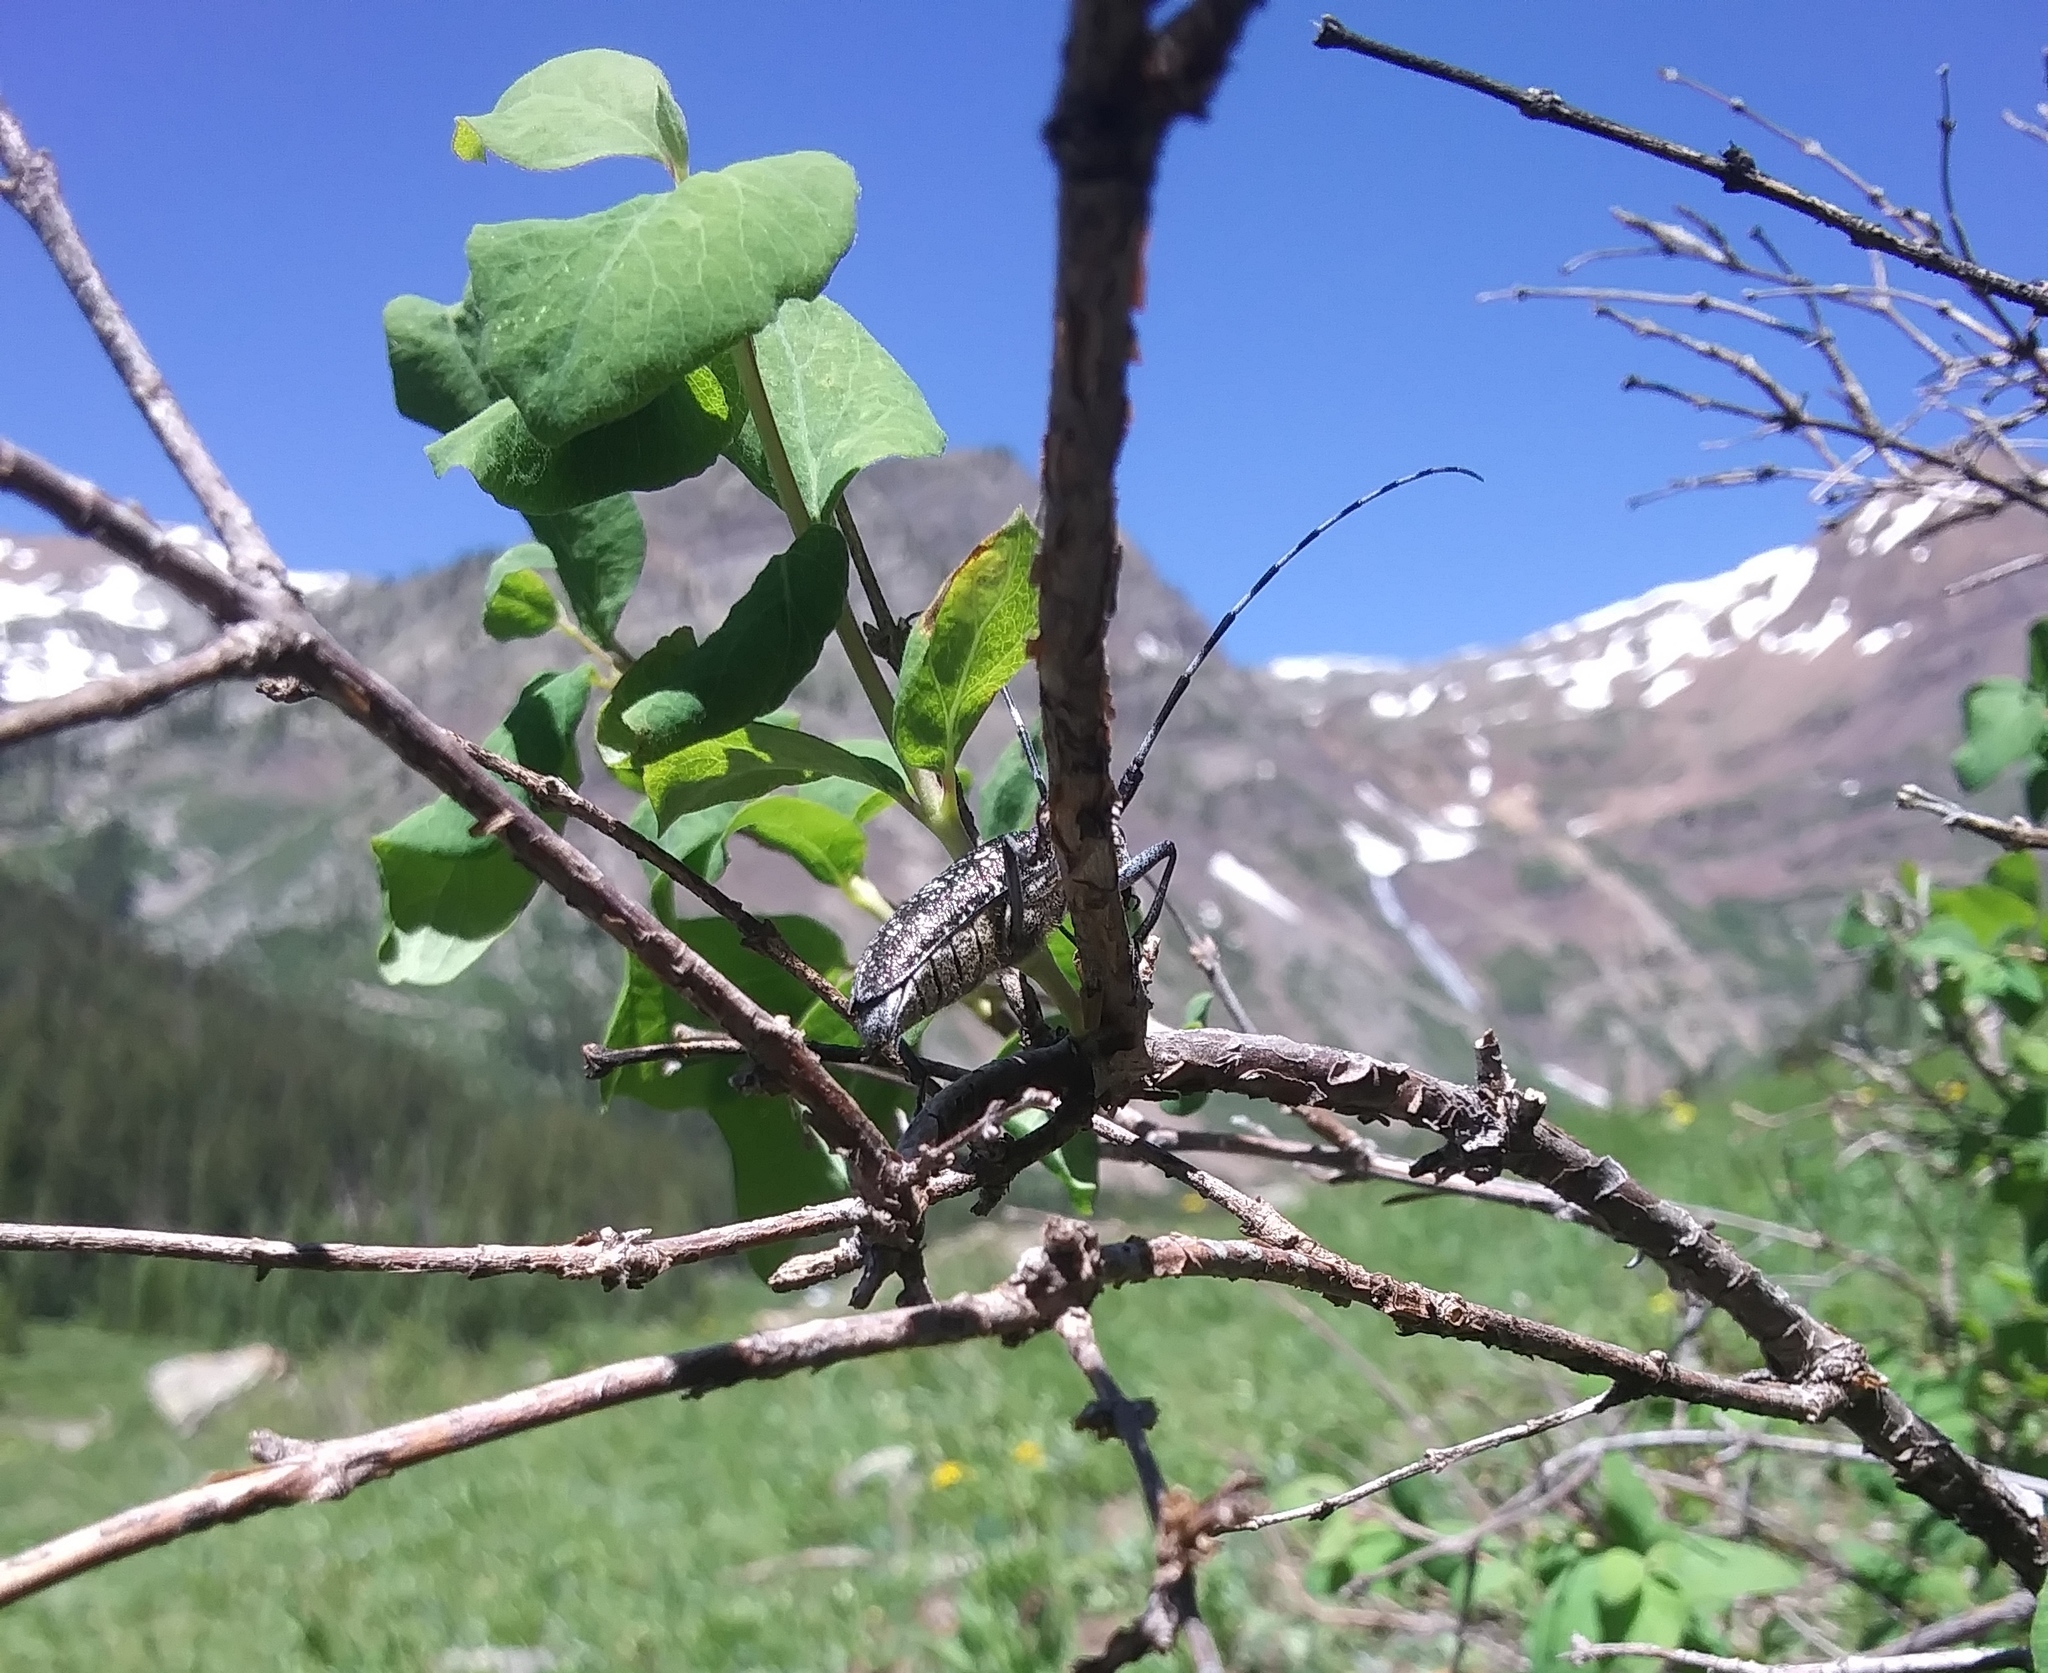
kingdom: Animalia
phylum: Arthropoda
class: Insecta
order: Coleoptera
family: Cerambycidae
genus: Monochamus
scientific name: Monochamus scutellatus
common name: White-spotted sawyer beetle
